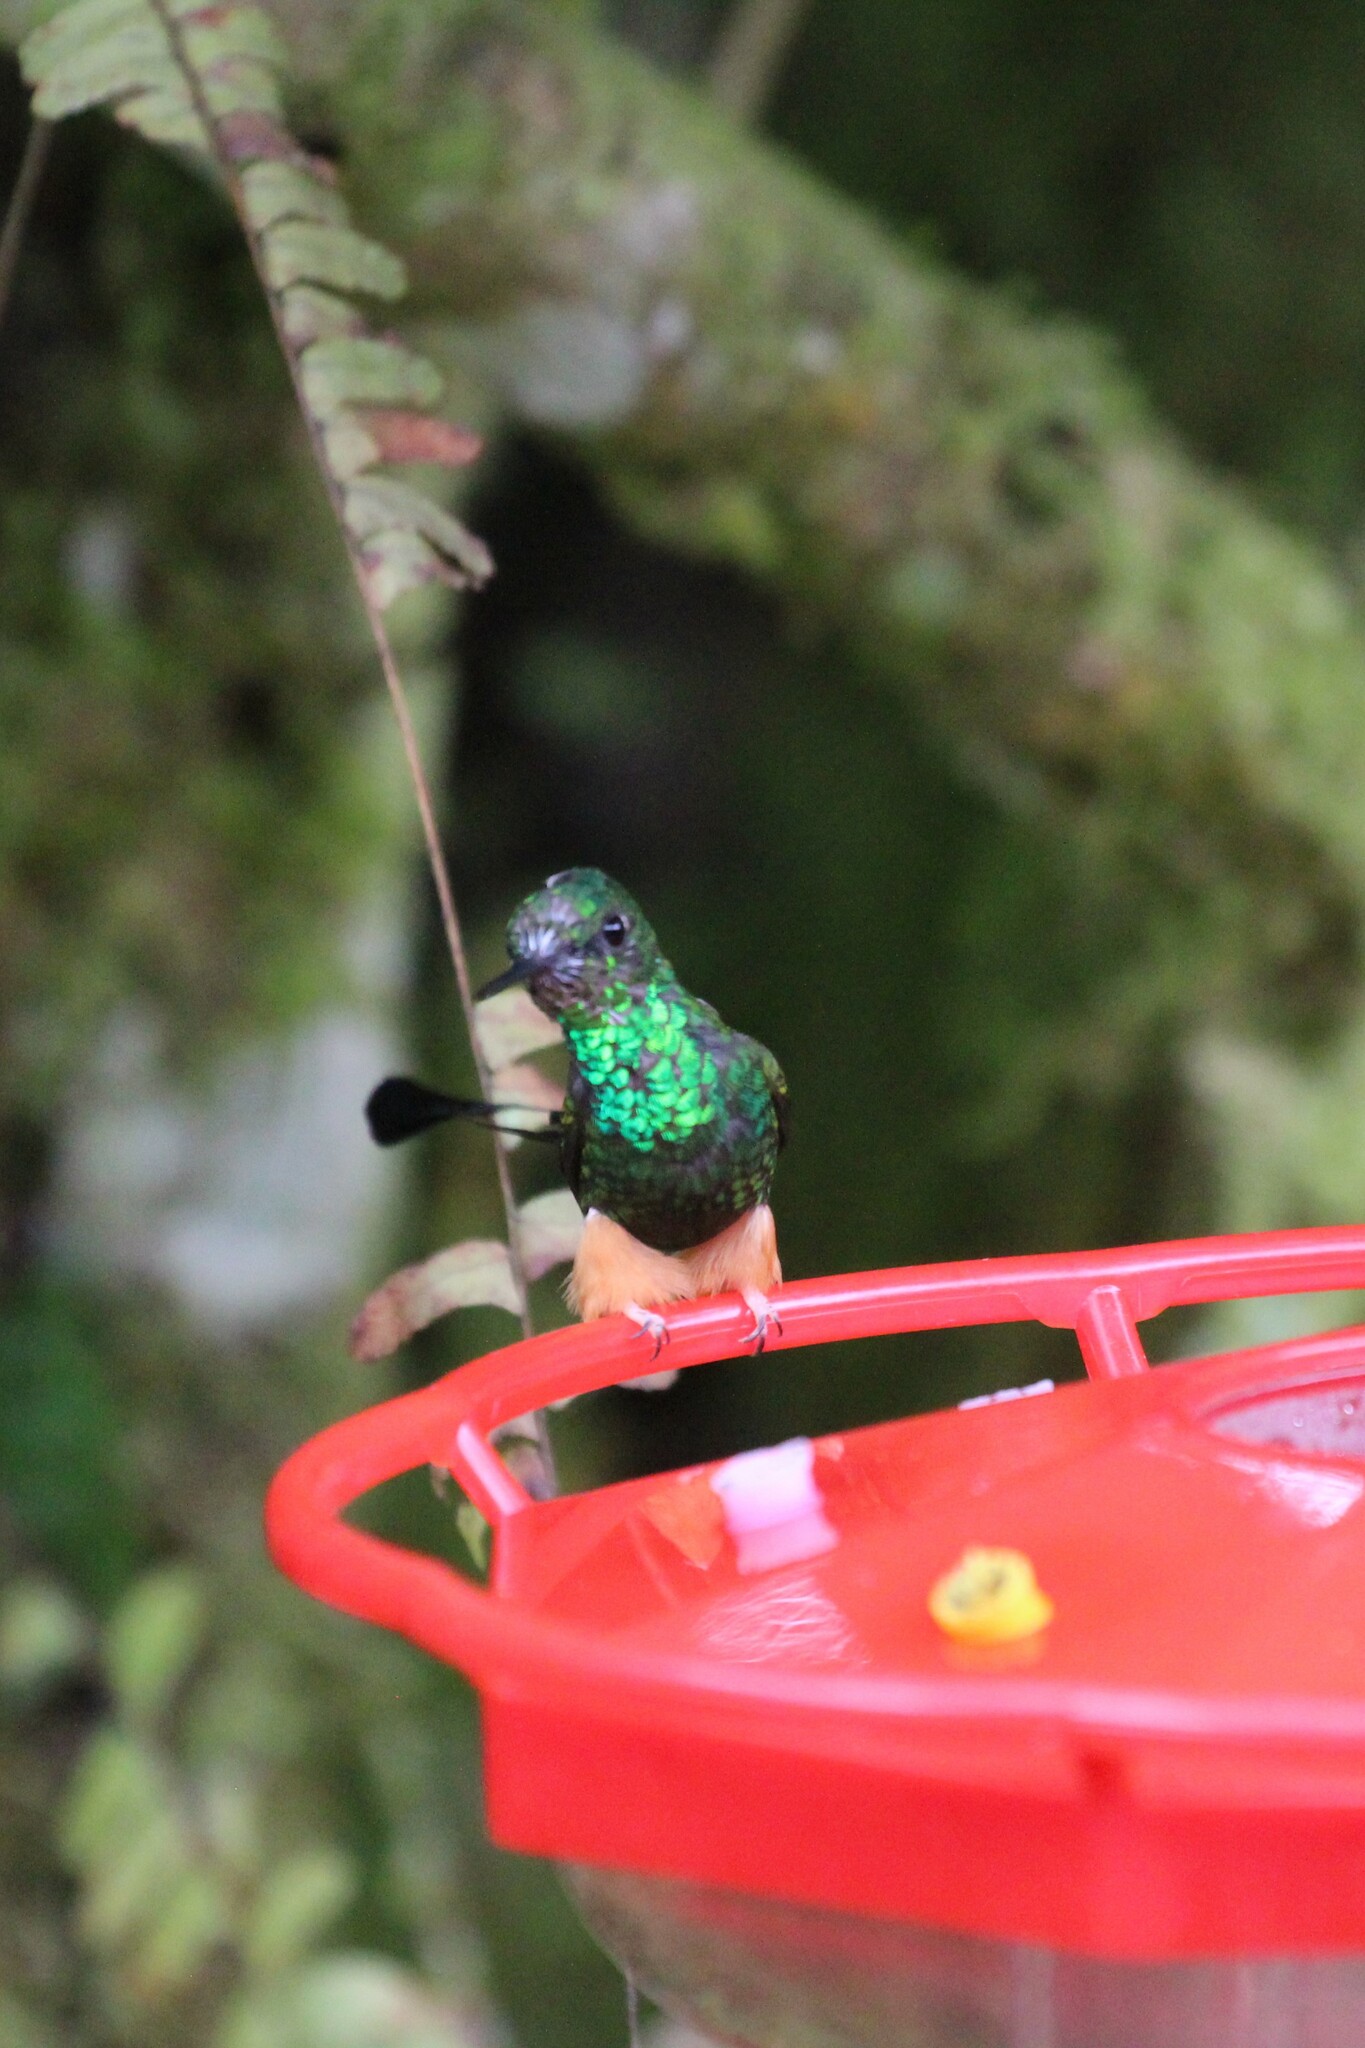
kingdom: Animalia
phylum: Chordata
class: Aves
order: Apodiformes
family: Trochilidae
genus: Ocreatus
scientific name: Ocreatus peruanus
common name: Peruvian racket-tail
